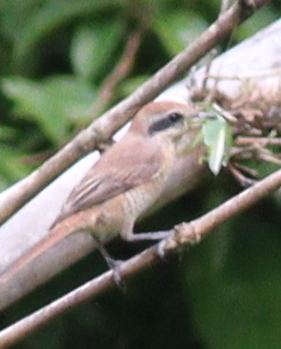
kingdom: Animalia
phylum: Chordata
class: Aves
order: Passeriformes
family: Laniidae
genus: Lanius
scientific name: Lanius cristatus
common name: Brown shrike
